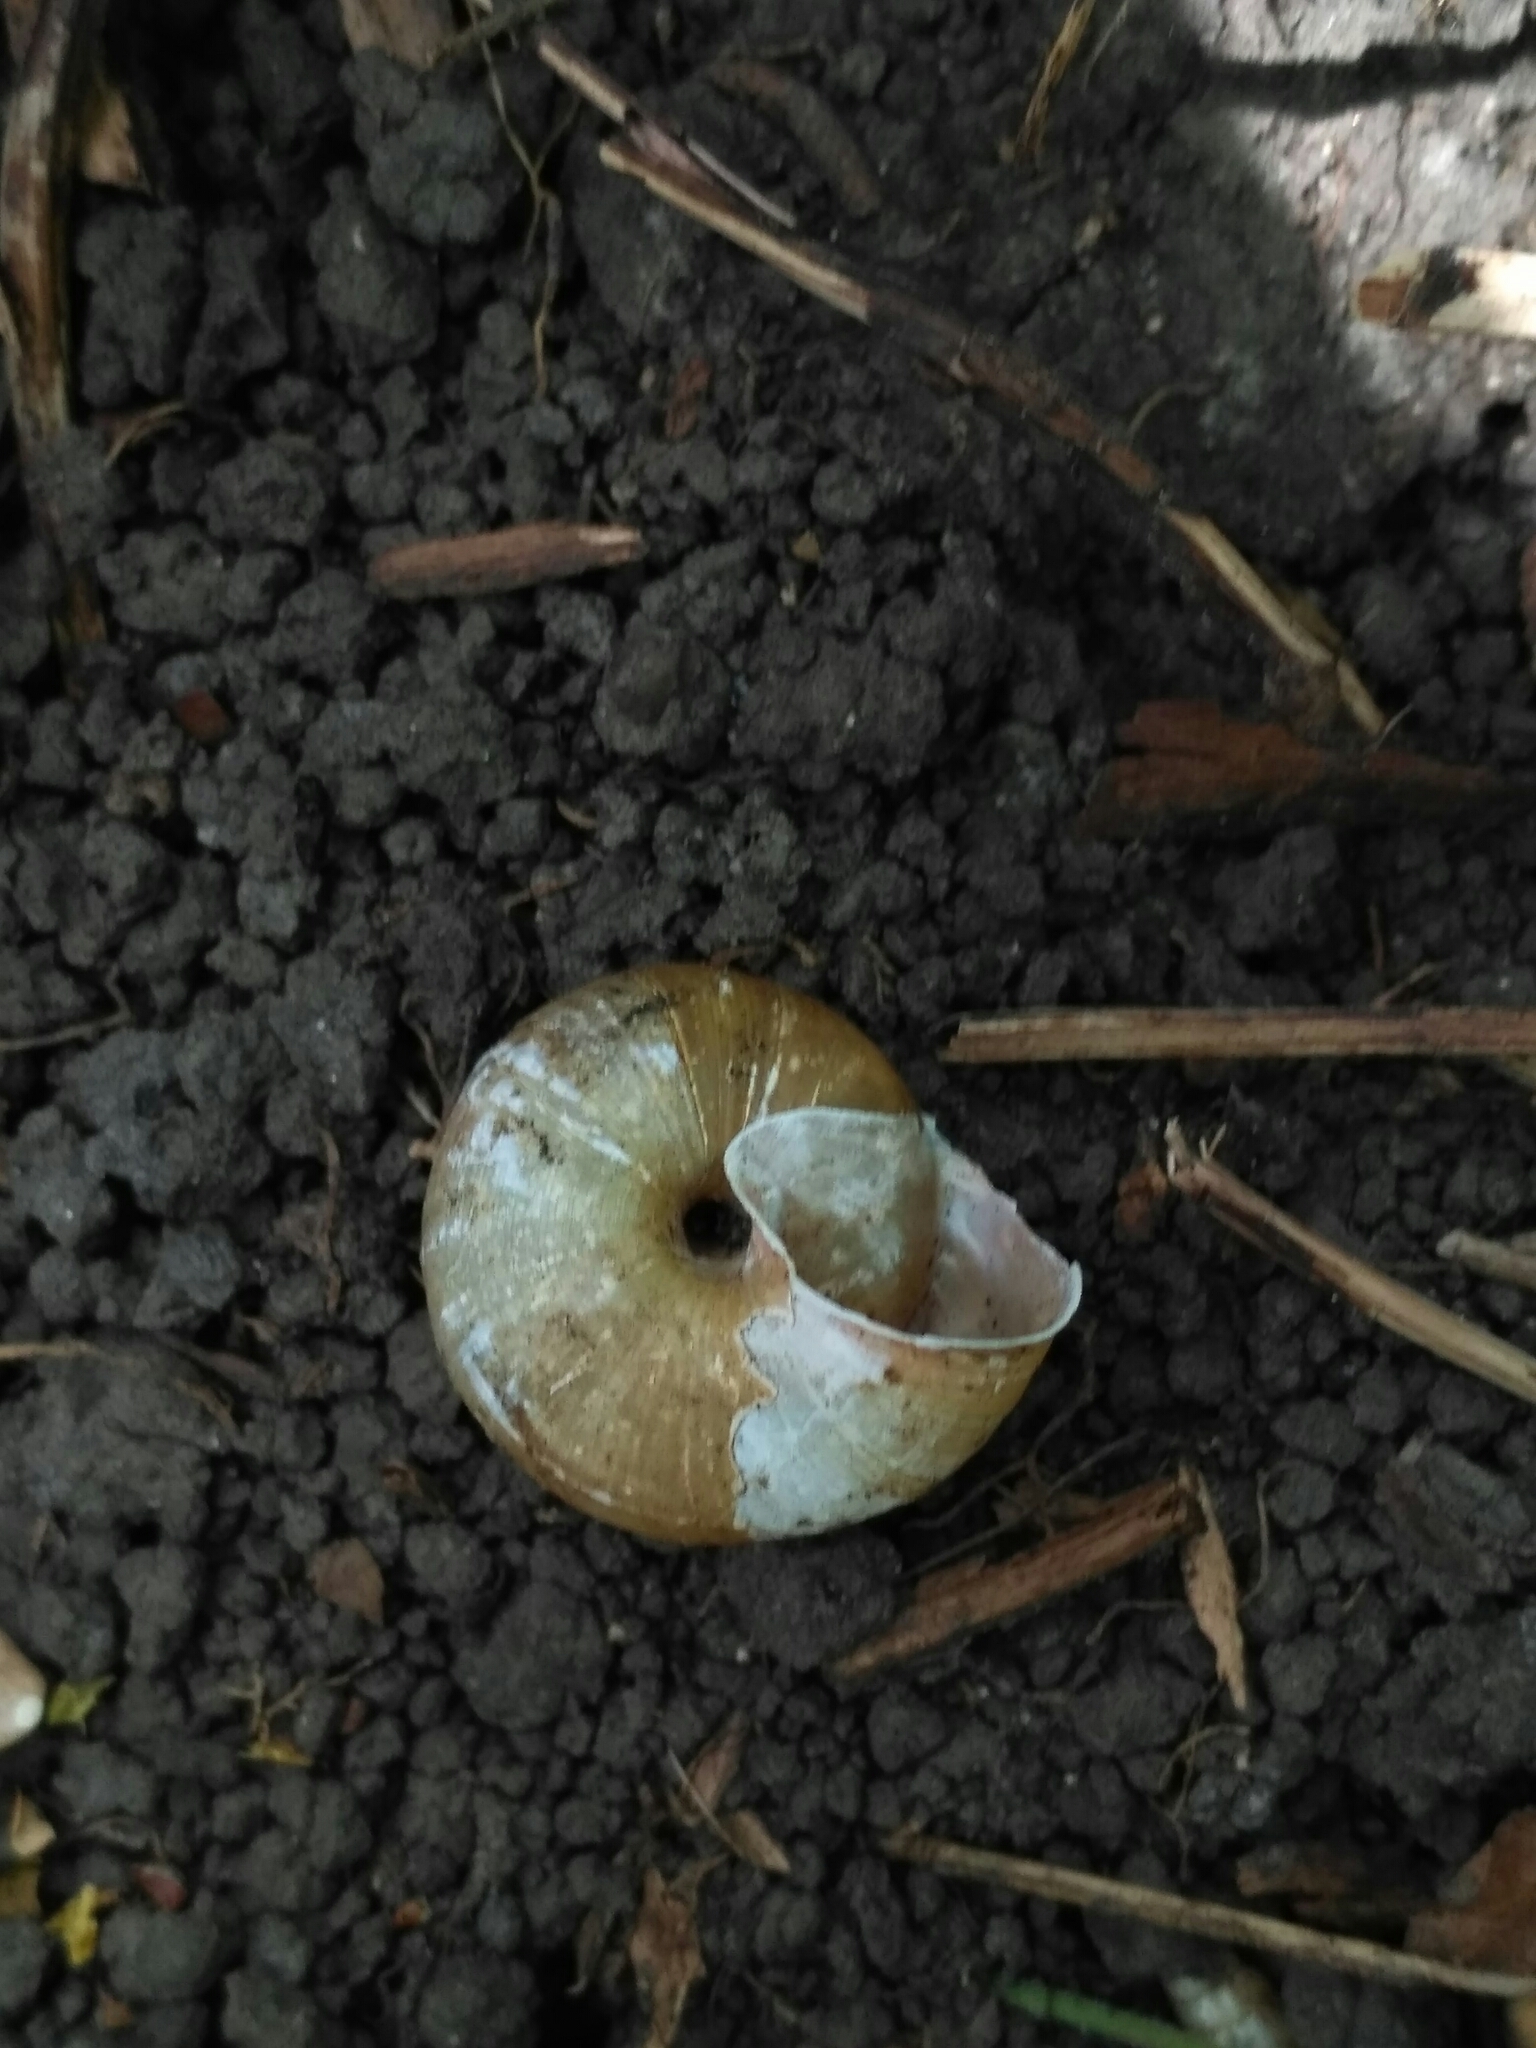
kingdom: Animalia
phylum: Mollusca
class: Gastropoda
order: Stylommatophora
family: Camaenidae
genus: Fruticicola
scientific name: Fruticicola fruticum
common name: Bush snail
